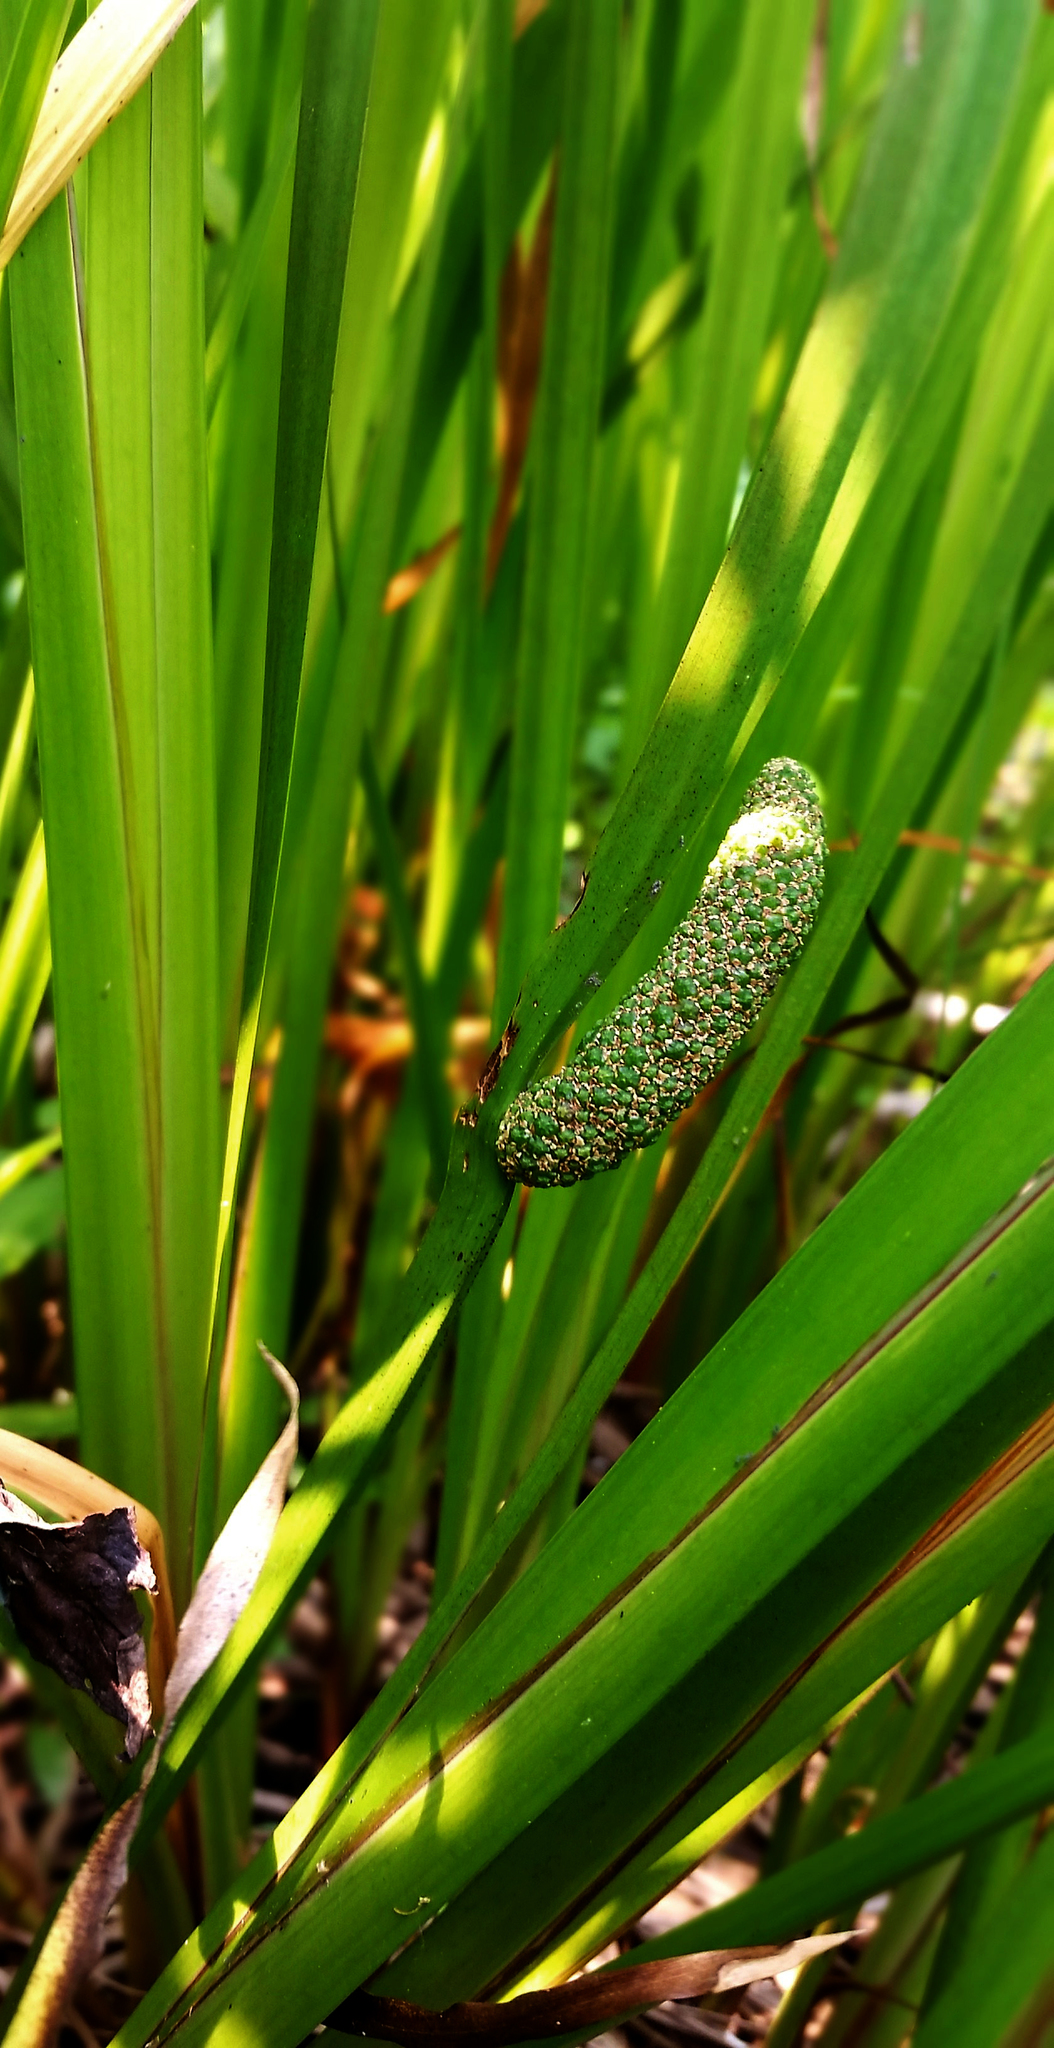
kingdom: Plantae
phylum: Tracheophyta
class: Liliopsida
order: Acorales
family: Acoraceae
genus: Acorus
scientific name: Acorus calamus
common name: Sweet-flag
